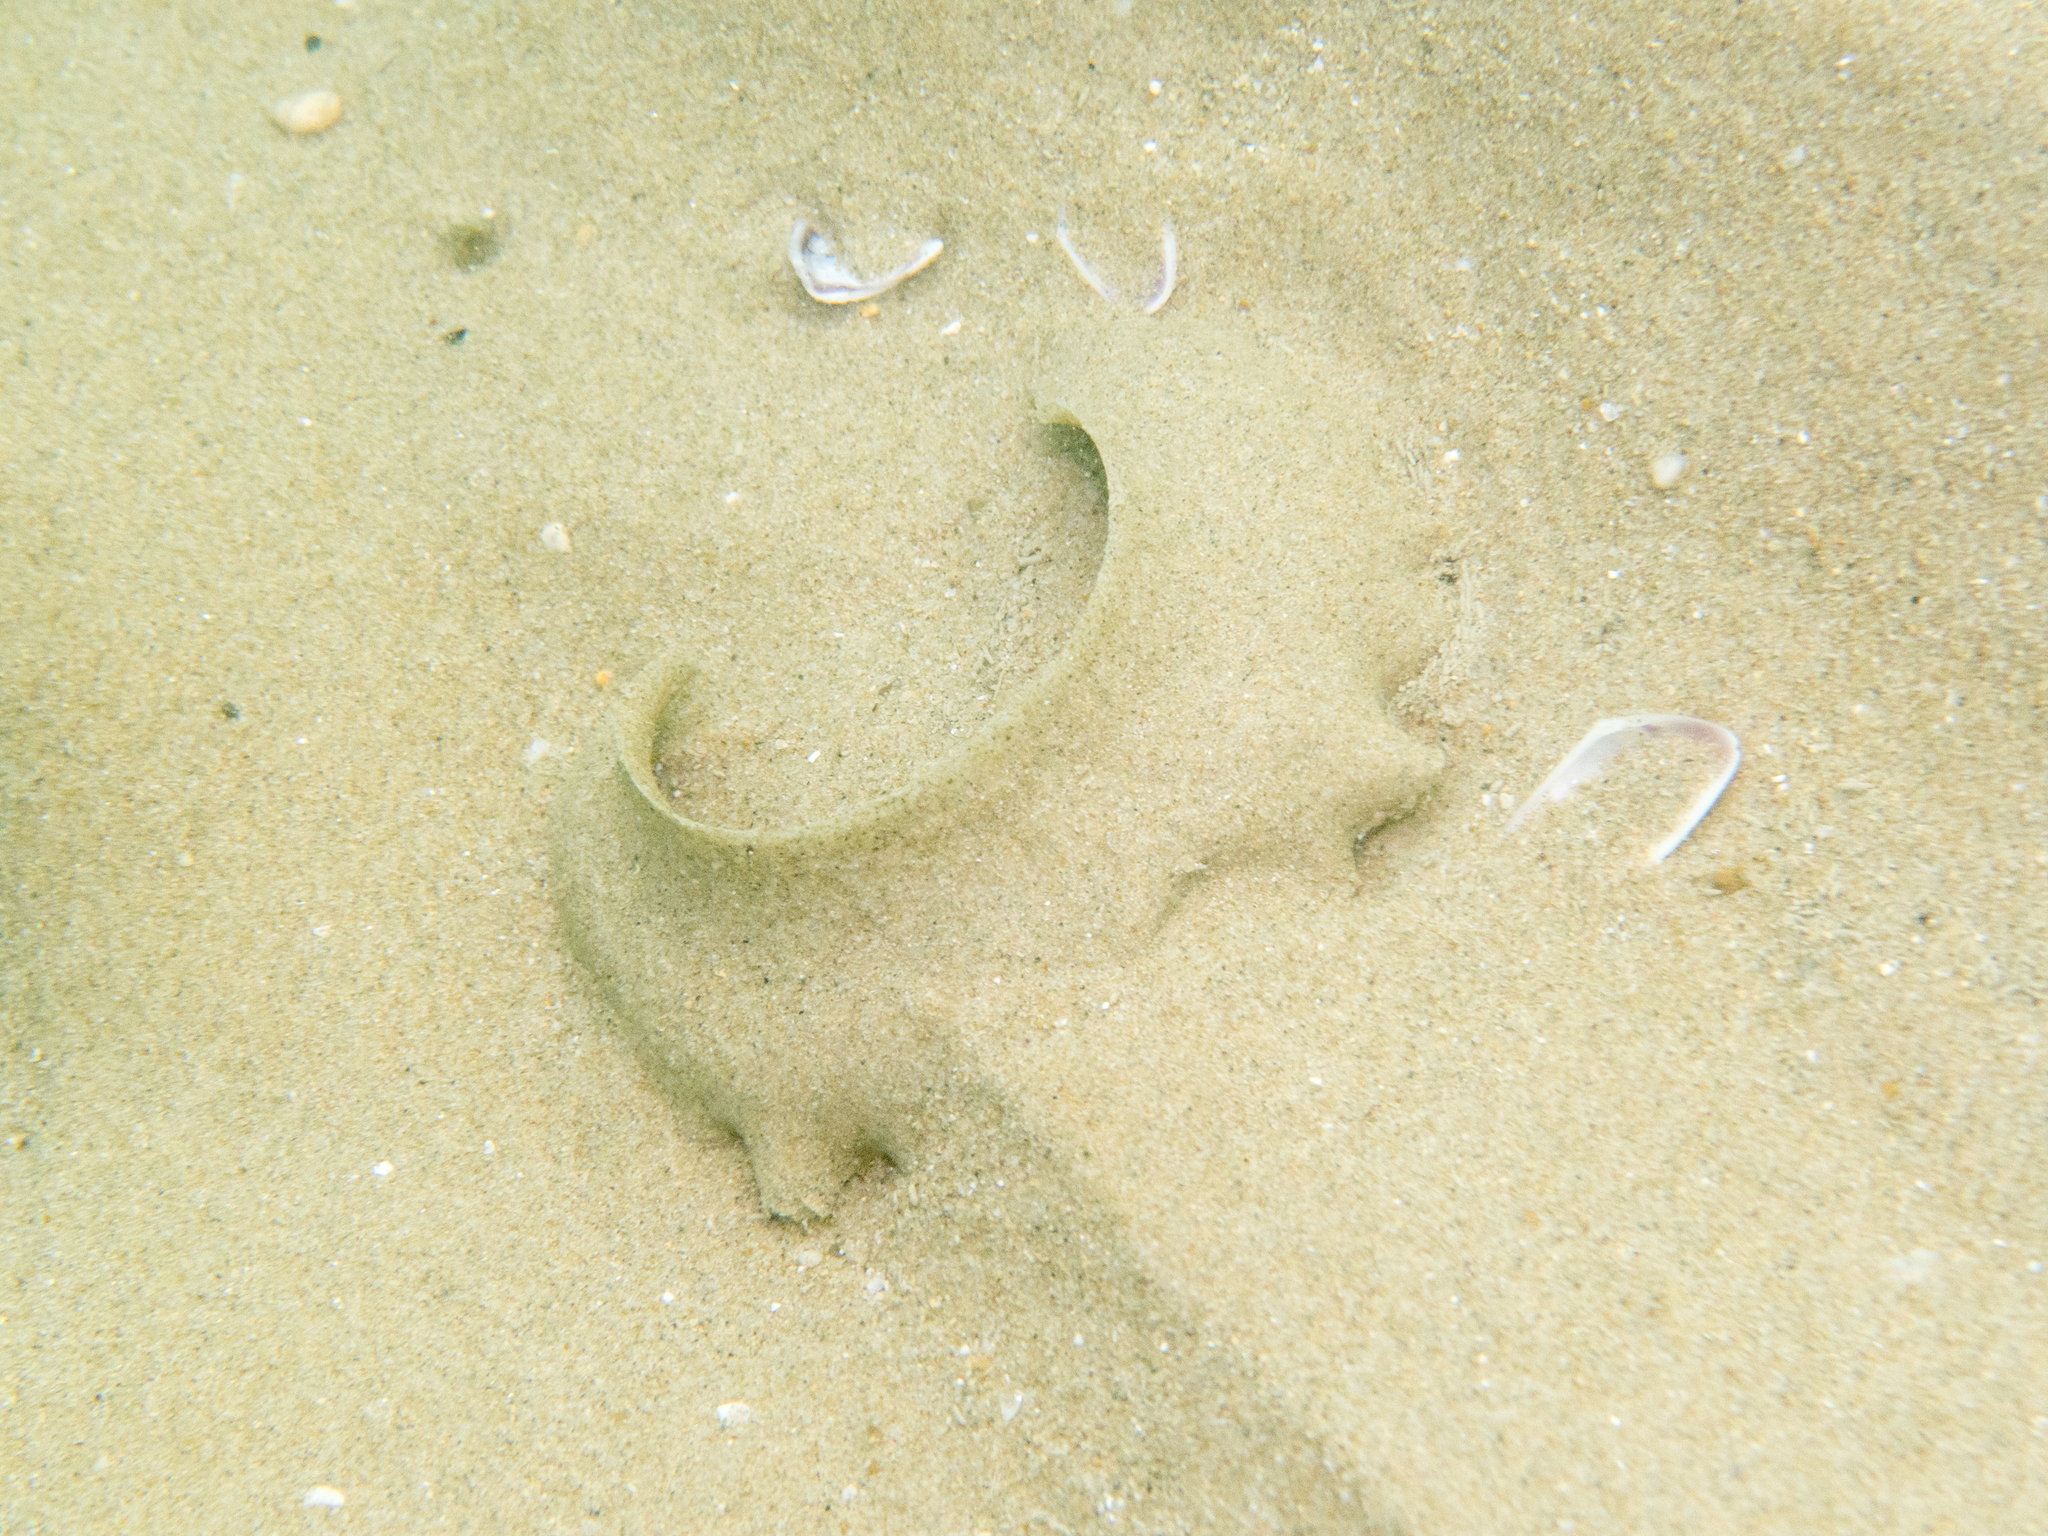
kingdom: Animalia
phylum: Mollusca
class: Gastropoda
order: Littorinimorpha
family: Naticidae
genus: Neverita
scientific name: Neverita josephinia
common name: Josephine's moonsnail
